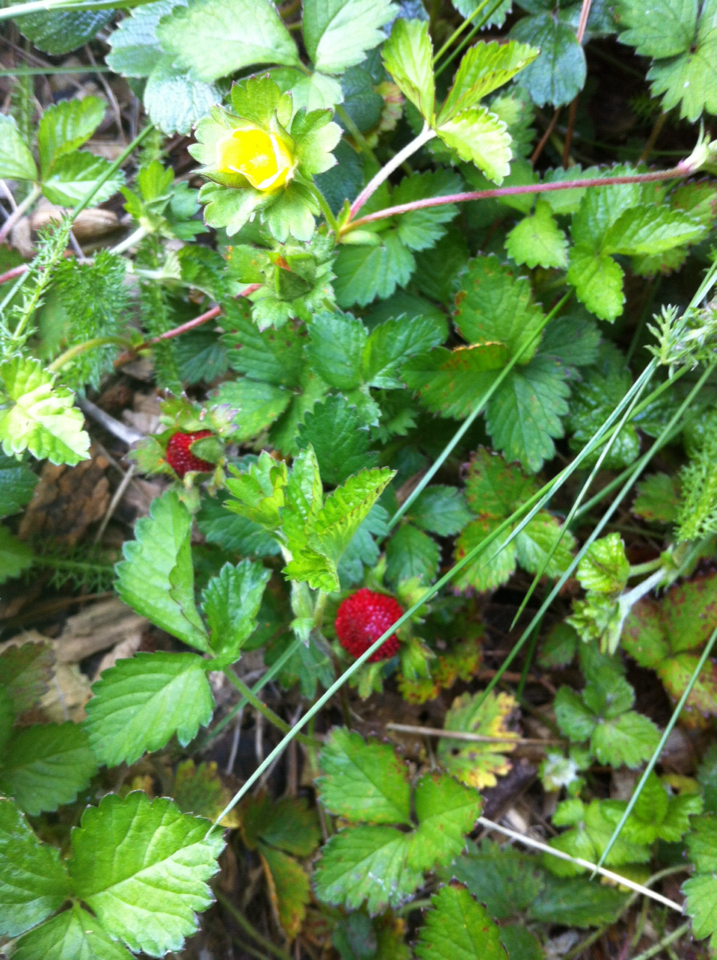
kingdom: Plantae
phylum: Tracheophyta
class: Magnoliopsida
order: Rosales
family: Rosaceae
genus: Potentilla
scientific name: Potentilla indica
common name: Yellow-flowered strawberry
